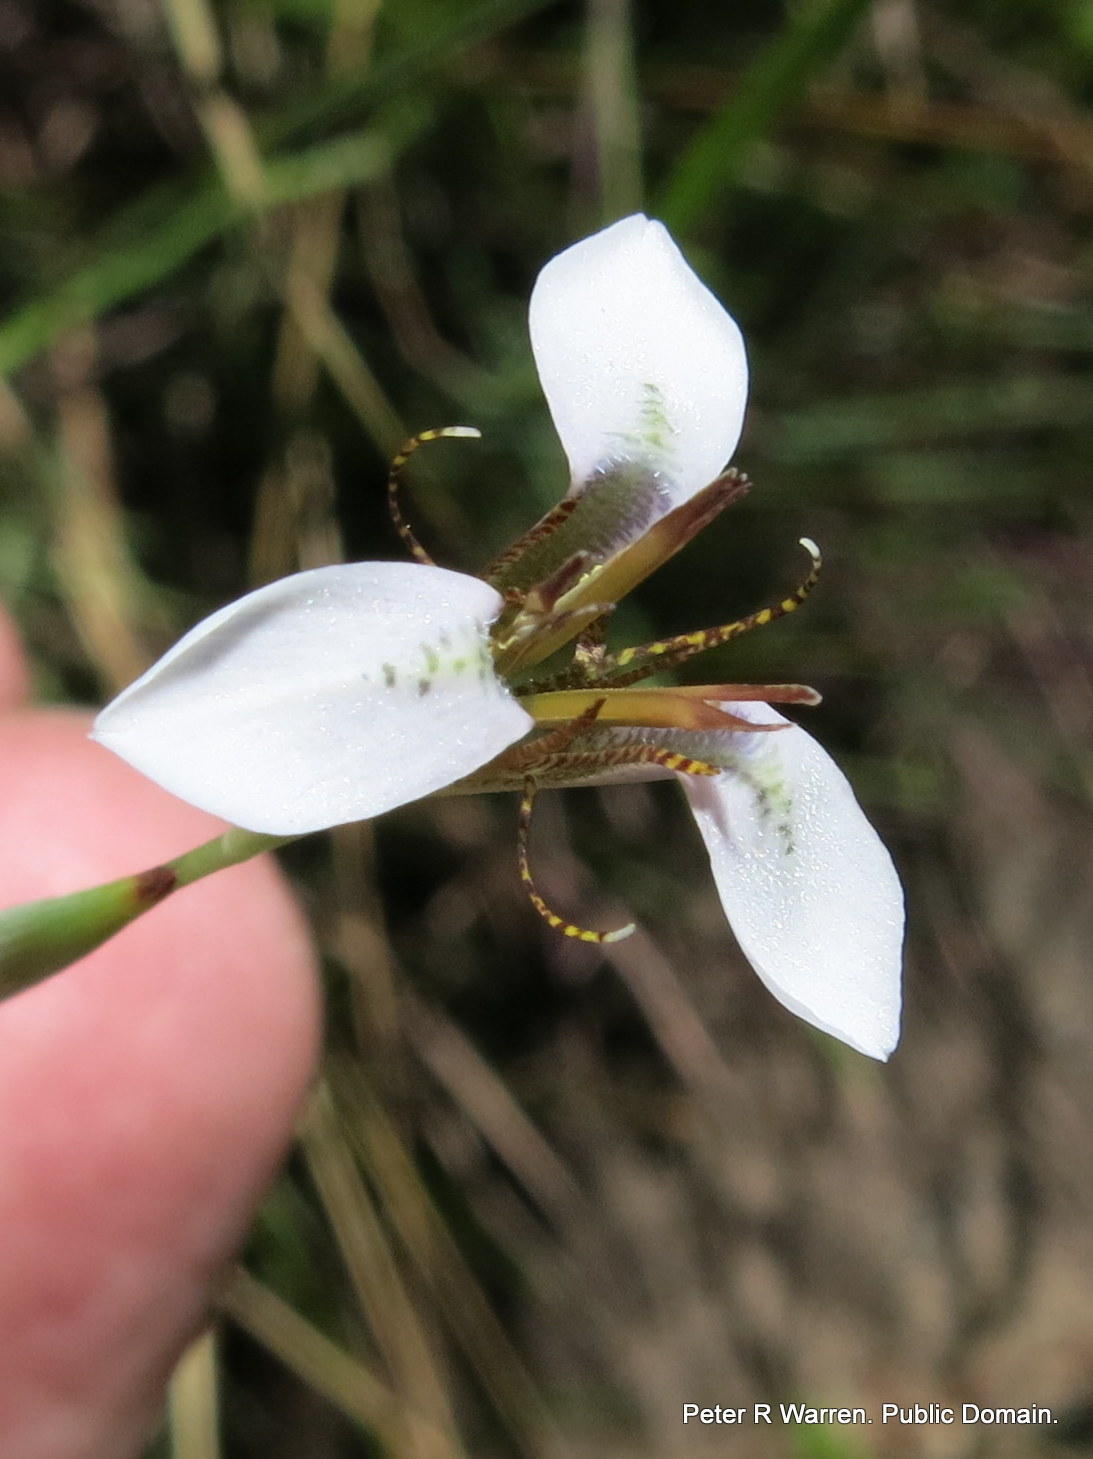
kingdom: Plantae
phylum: Tracheophyta
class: Liliopsida
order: Asparagales
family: Iridaceae
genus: Moraea
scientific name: Moraea brevistyla
